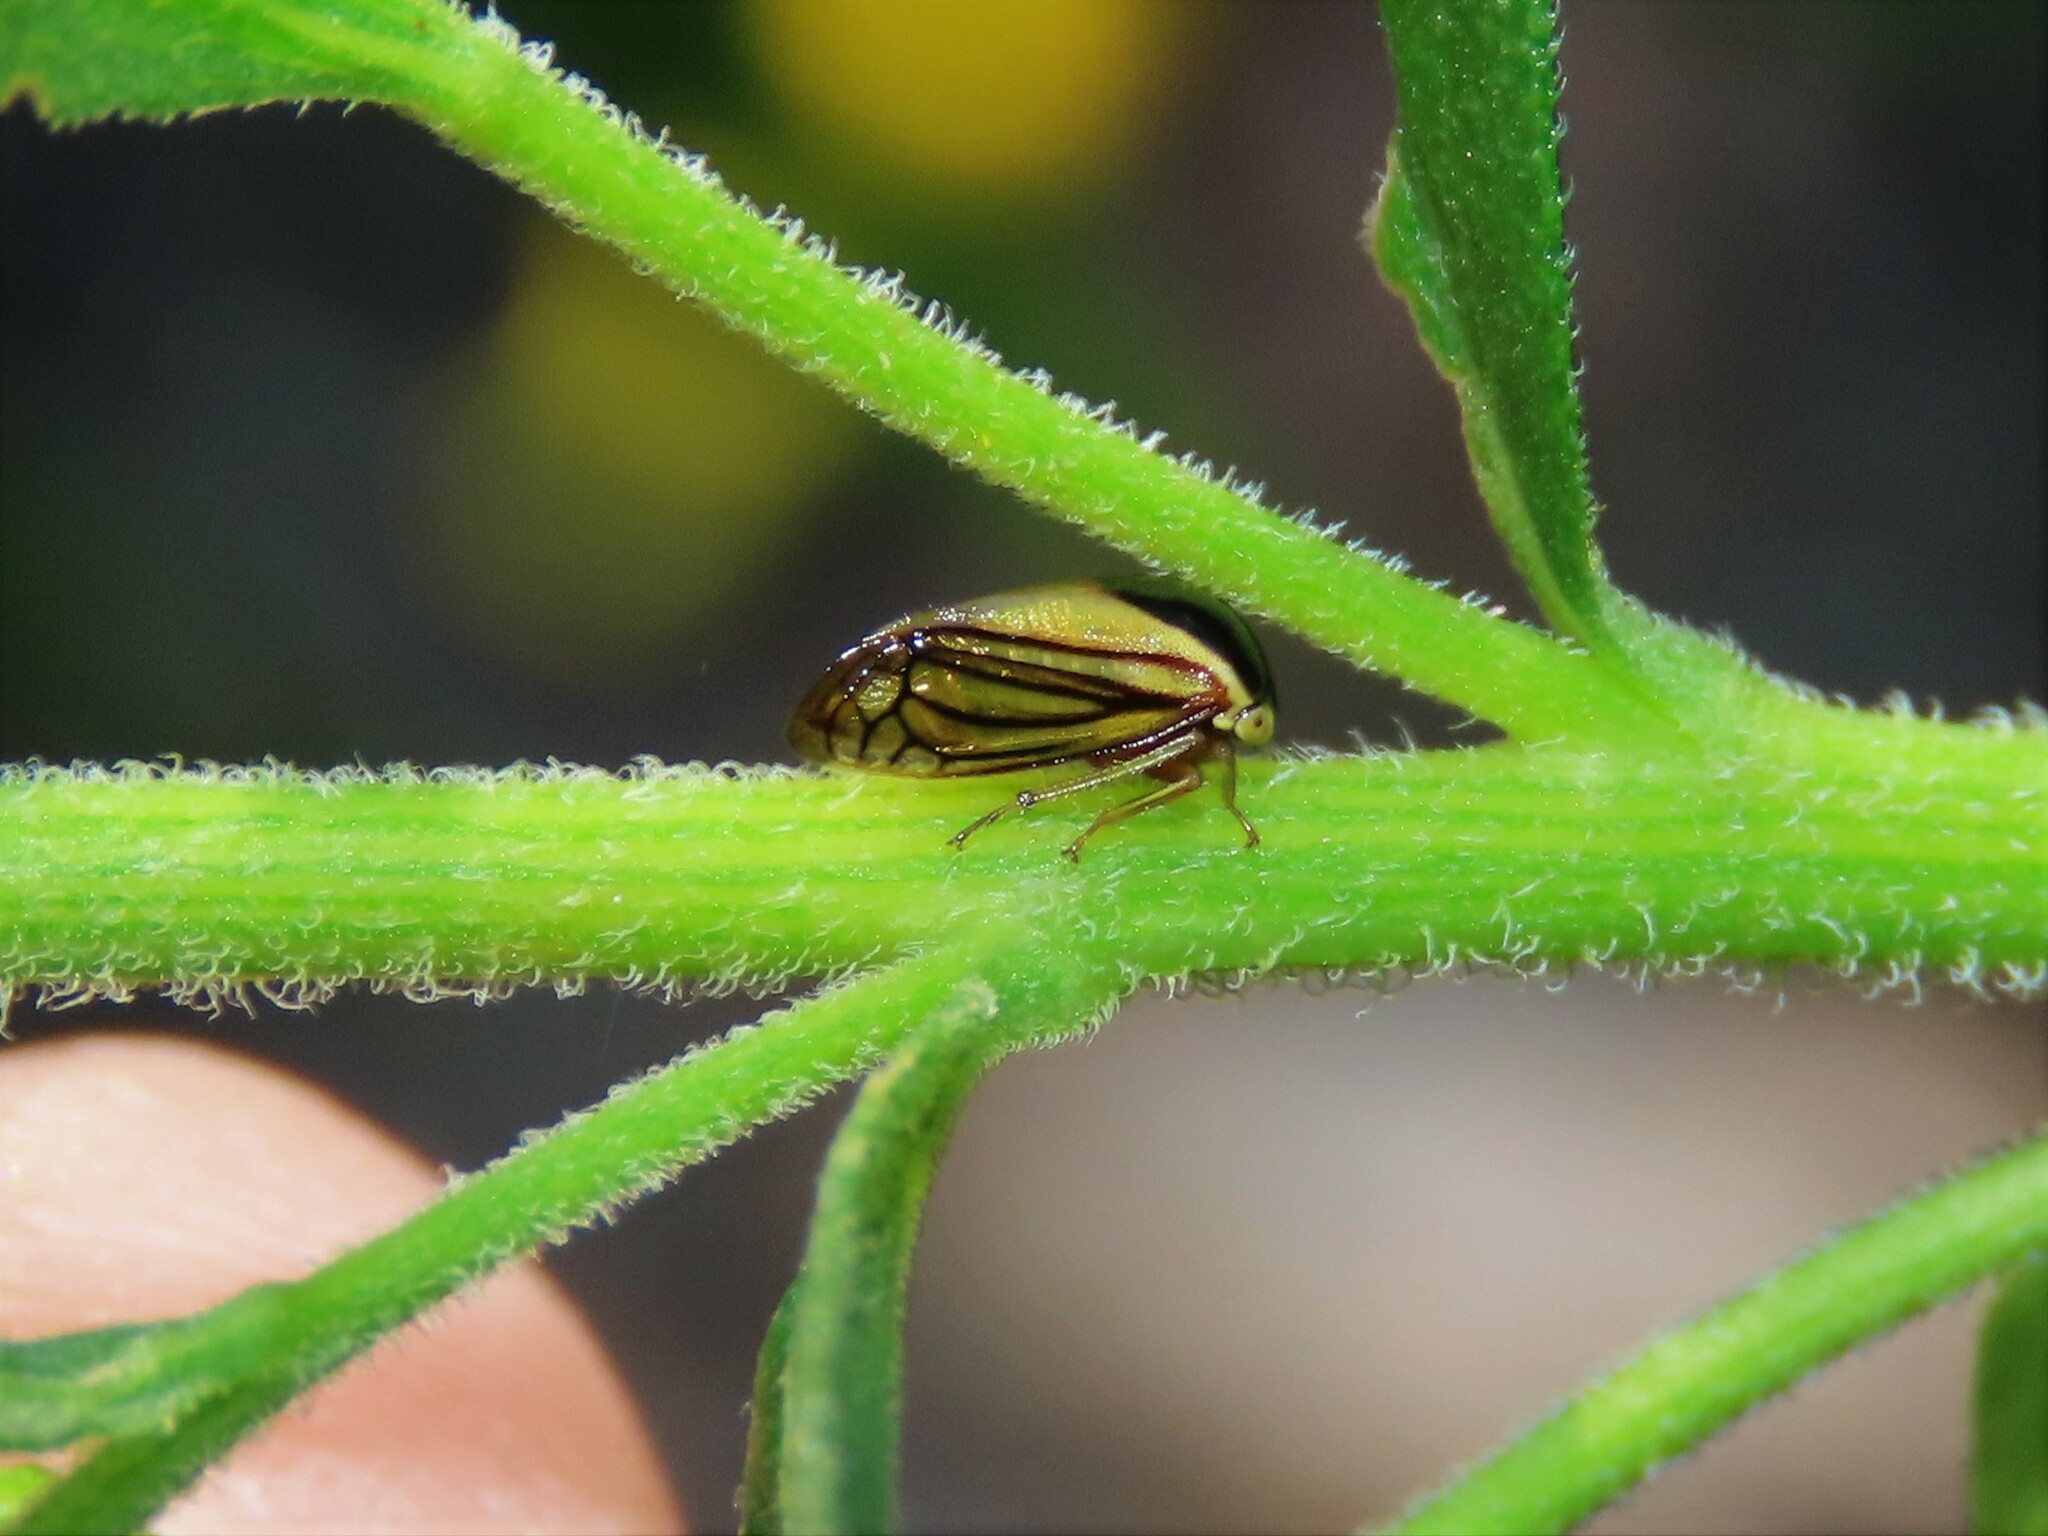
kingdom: Animalia
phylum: Arthropoda
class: Insecta
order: Hemiptera
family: Membracidae
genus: Acutalis
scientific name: Acutalis tartarea
